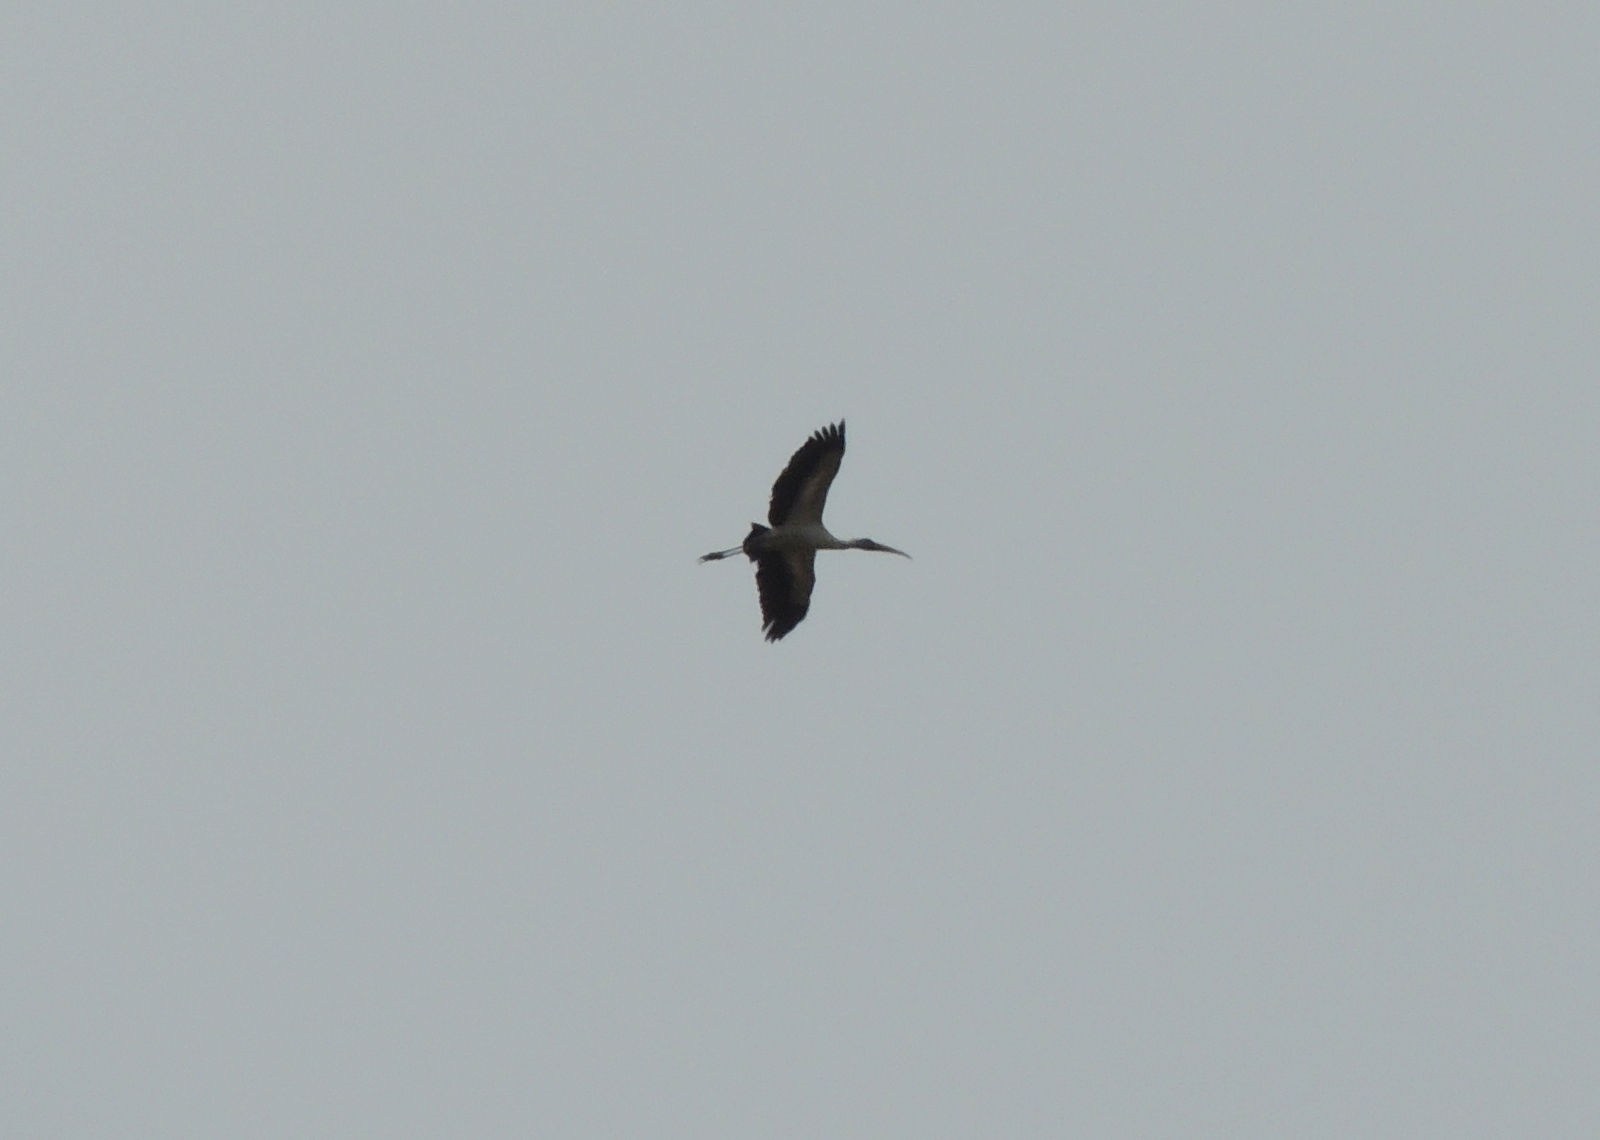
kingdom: Animalia
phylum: Chordata
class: Aves
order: Ciconiiformes
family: Ciconiidae
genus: Mycteria
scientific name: Mycteria americana
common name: Wood stork
